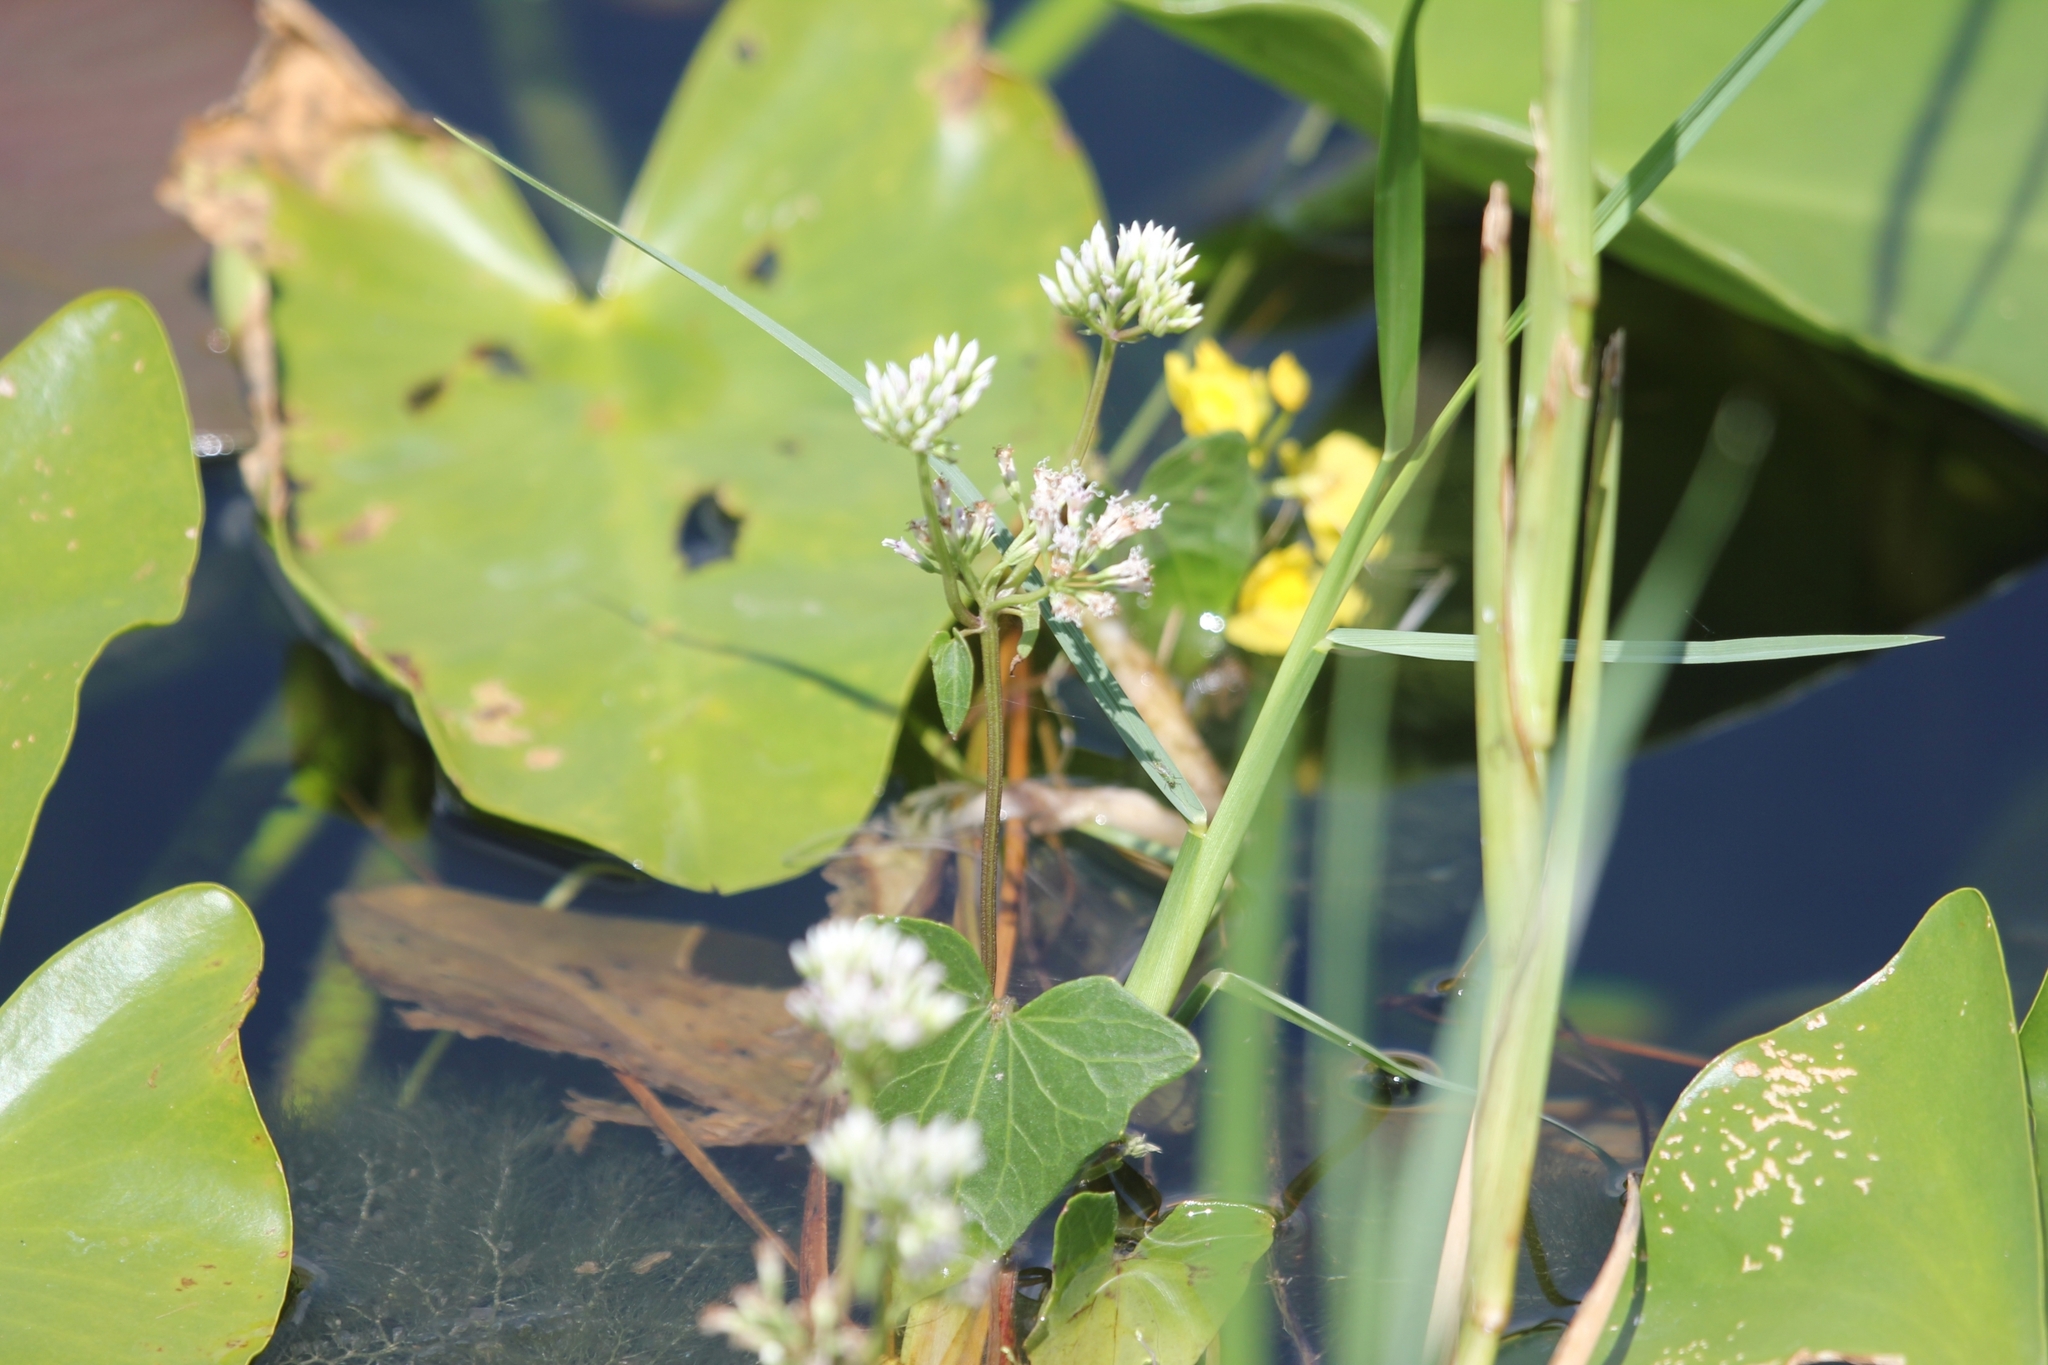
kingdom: Plantae
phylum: Tracheophyta
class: Magnoliopsida
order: Asterales
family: Asteraceae
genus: Mikania
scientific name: Mikania scandens
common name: Climbing hempvine
